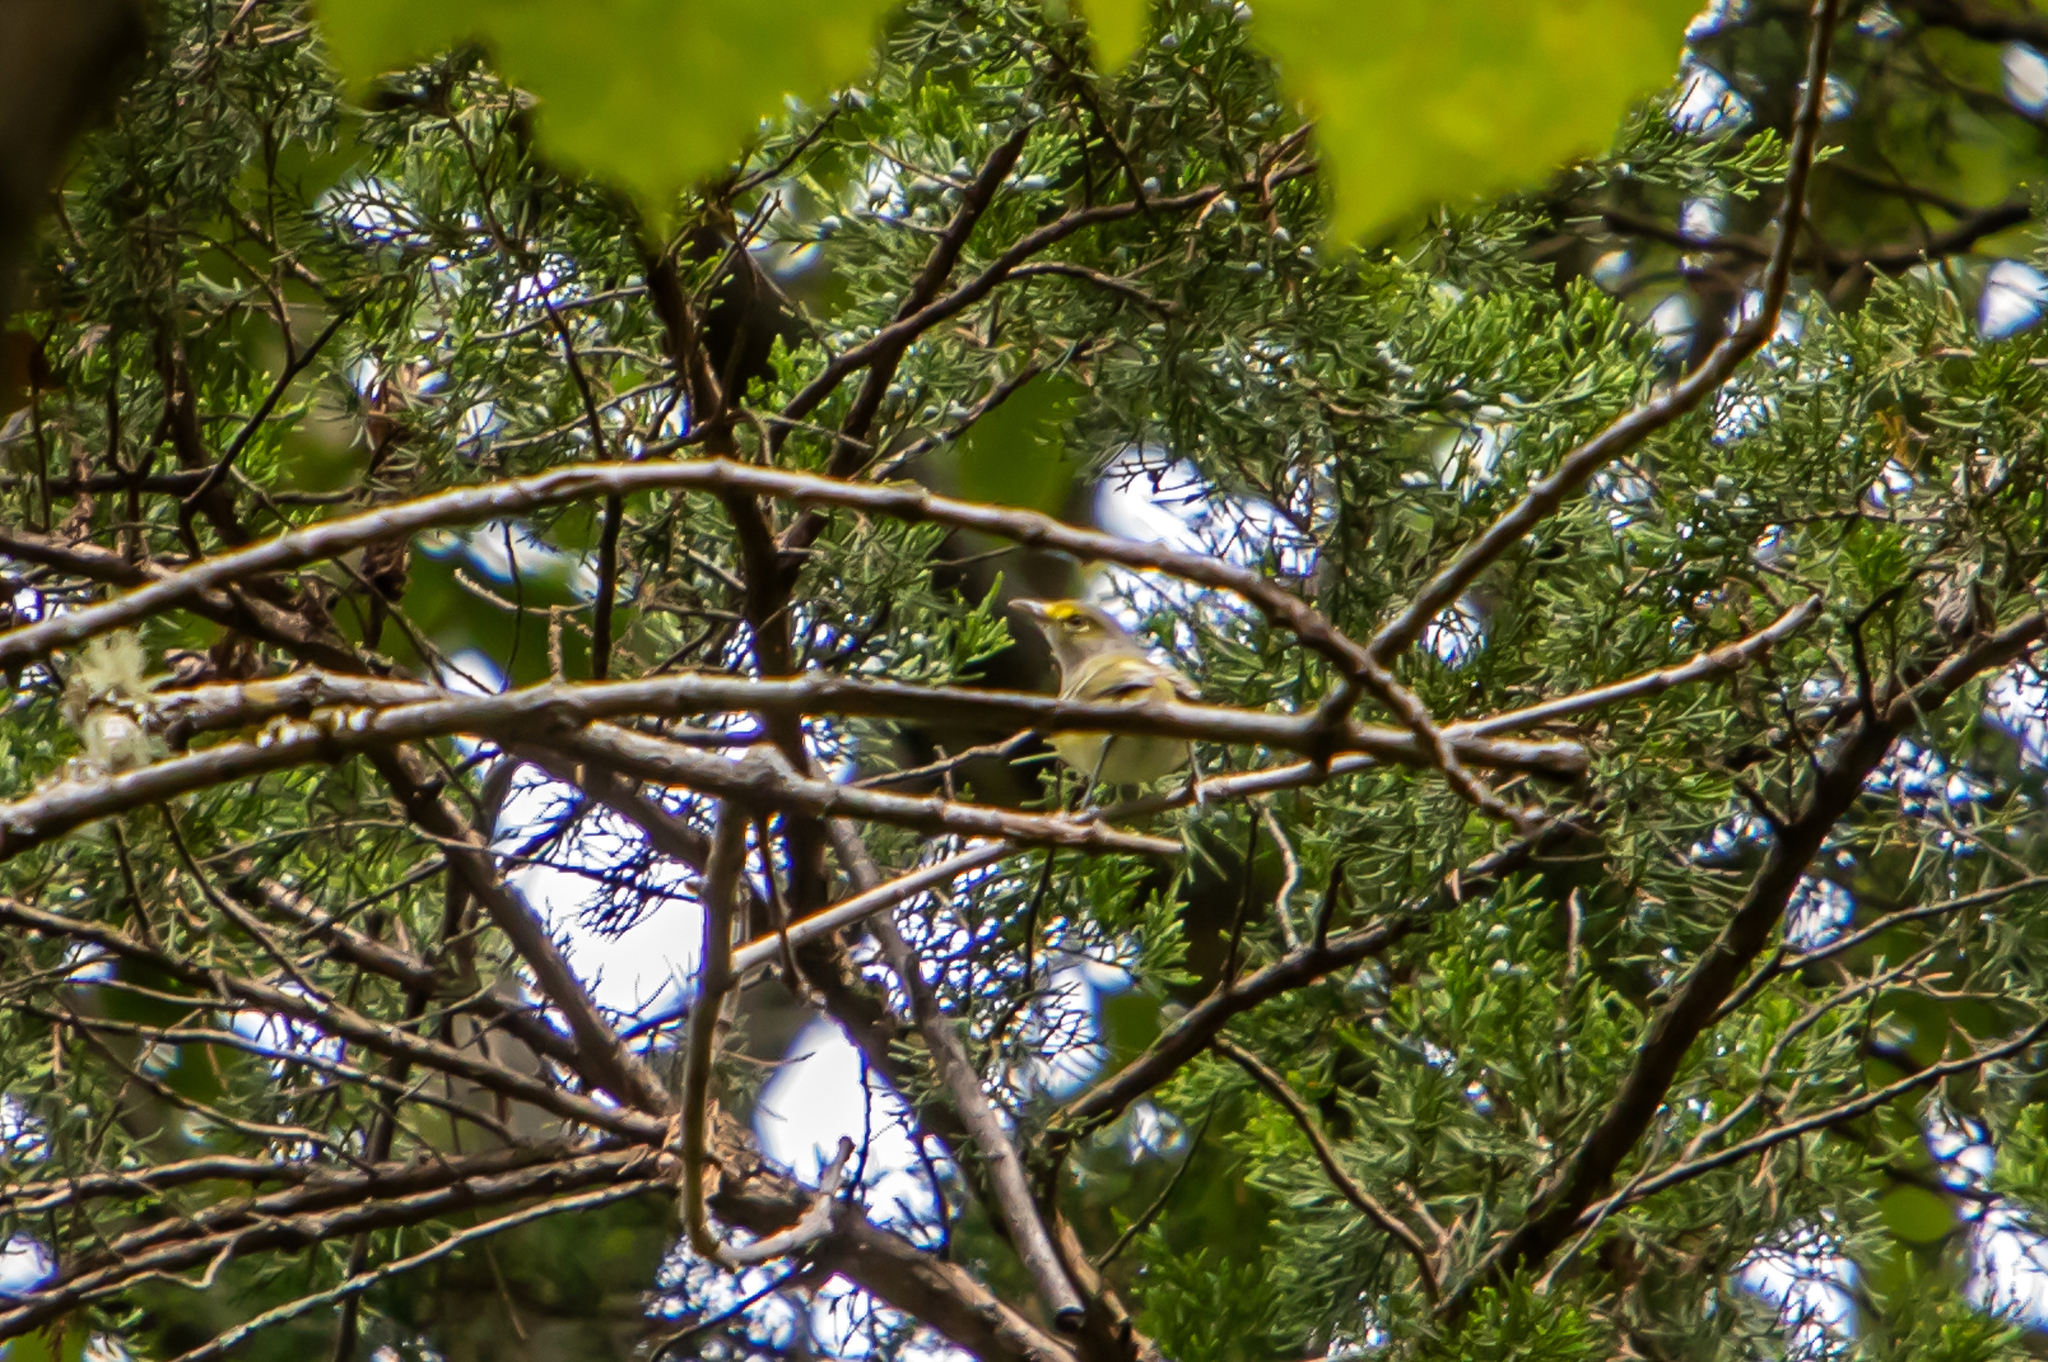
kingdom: Animalia
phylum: Chordata
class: Aves
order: Passeriformes
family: Parulidae
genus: Setophaga
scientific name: Setophaga magnolia
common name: Magnolia warbler
